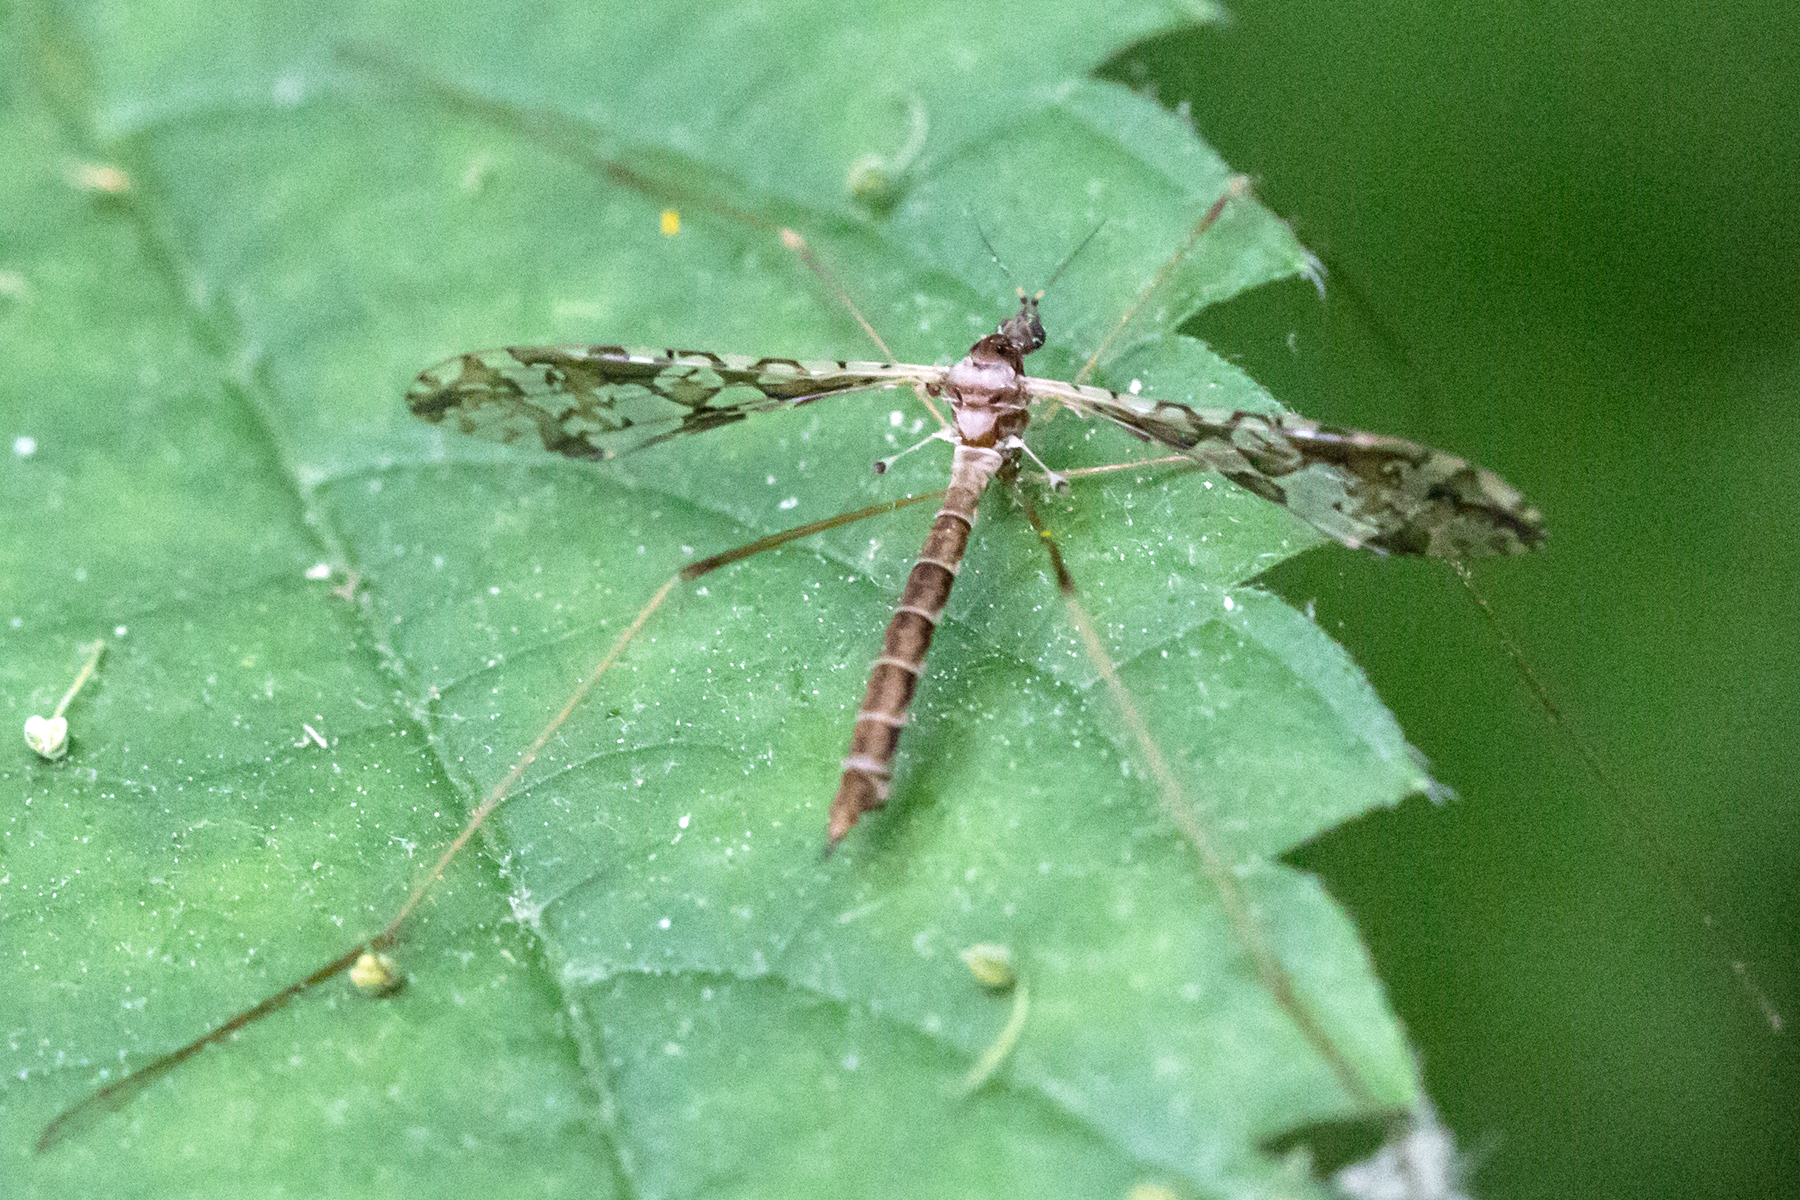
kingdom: Animalia
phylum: Arthropoda
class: Insecta
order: Diptera
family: Limoniidae
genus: Epiphragma
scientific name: Epiphragma solatrix
